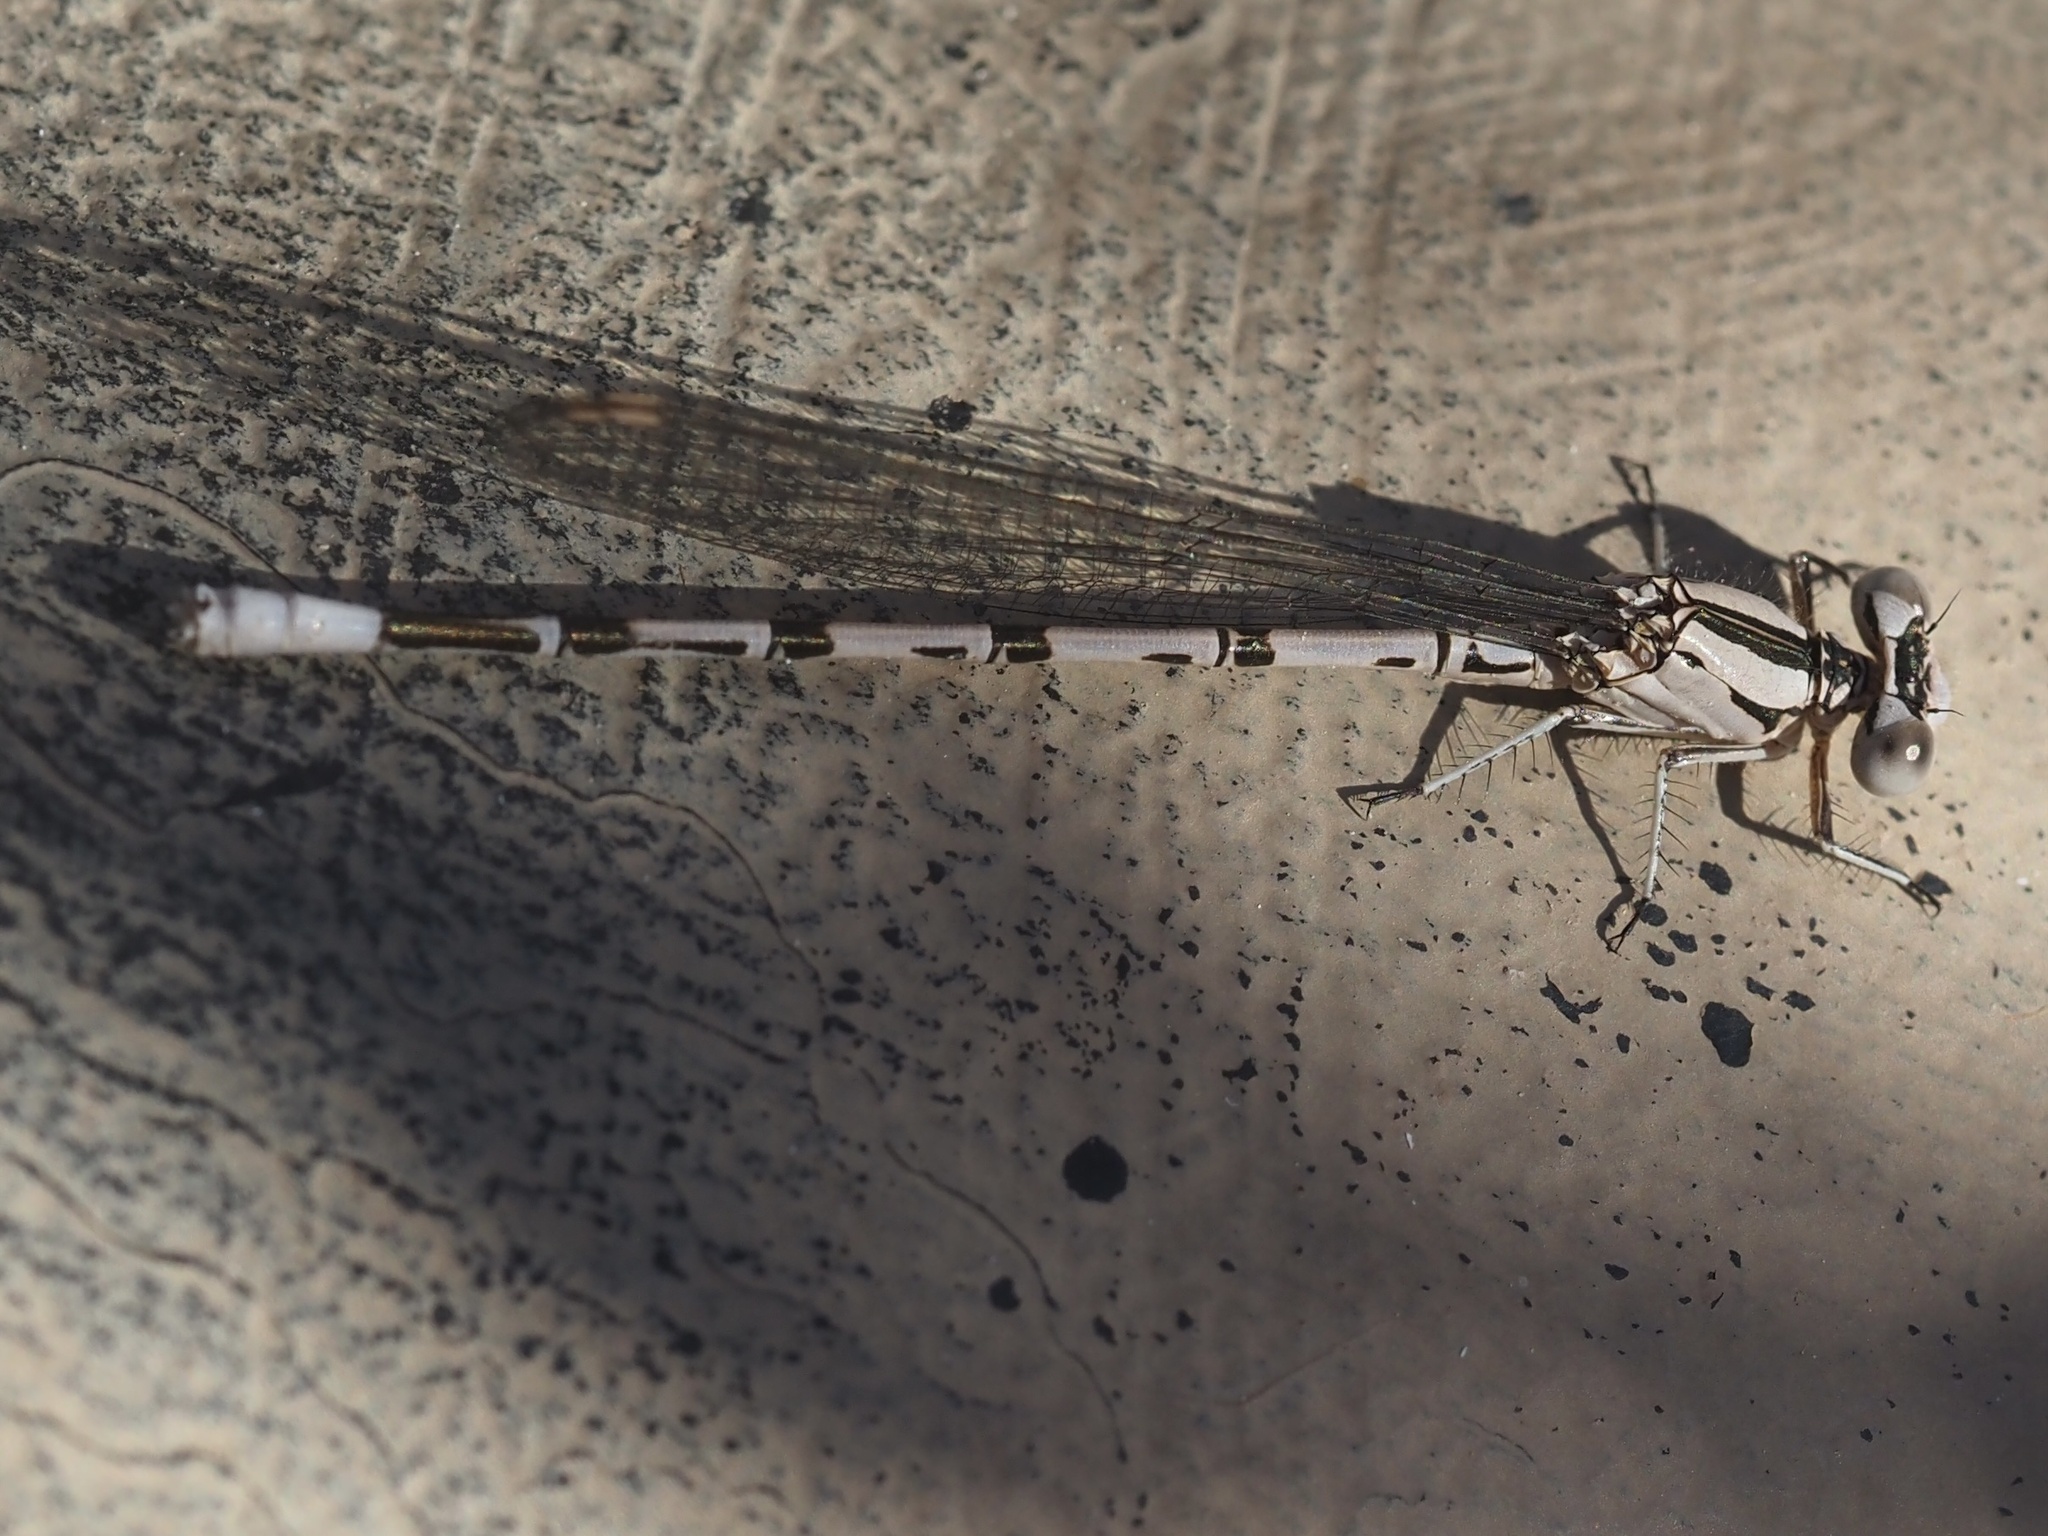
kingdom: Animalia
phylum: Arthropoda
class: Insecta
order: Odonata
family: Coenagrionidae
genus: Argia
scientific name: Argia vivida
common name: Vivid dancer
